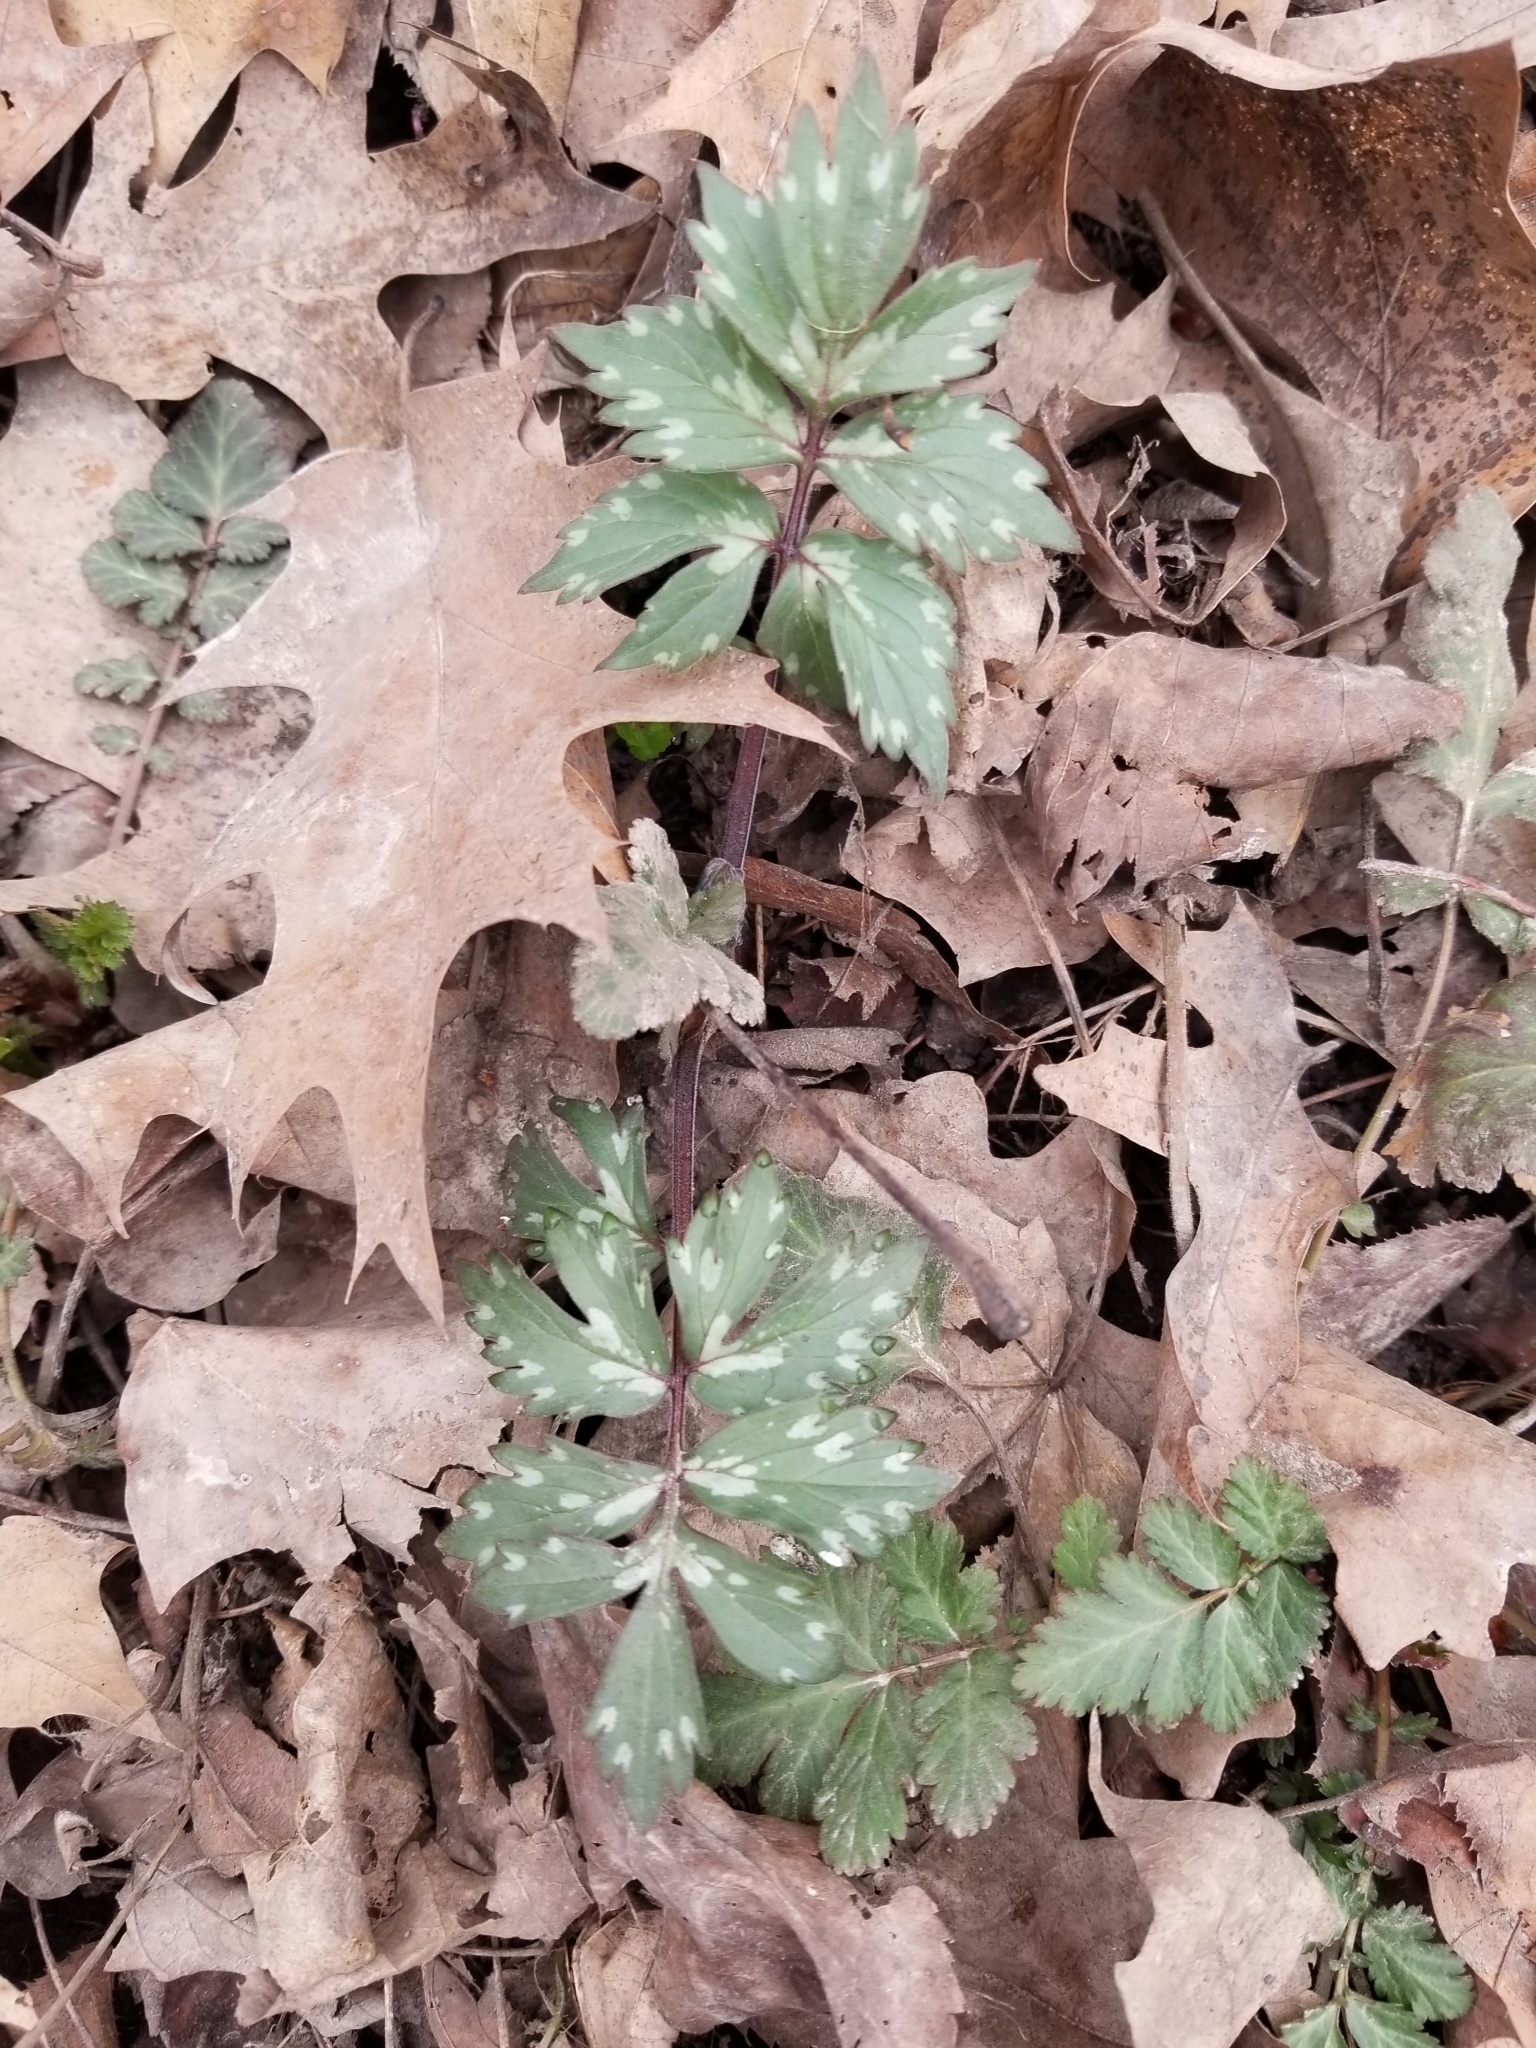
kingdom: Plantae
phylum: Tracheophyta
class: Magnoliopsida
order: Boraginales
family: Hydrophyllaceae
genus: Hydrophyllum
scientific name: Hydrophyllum virginianum
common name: Virginia waterleaf
